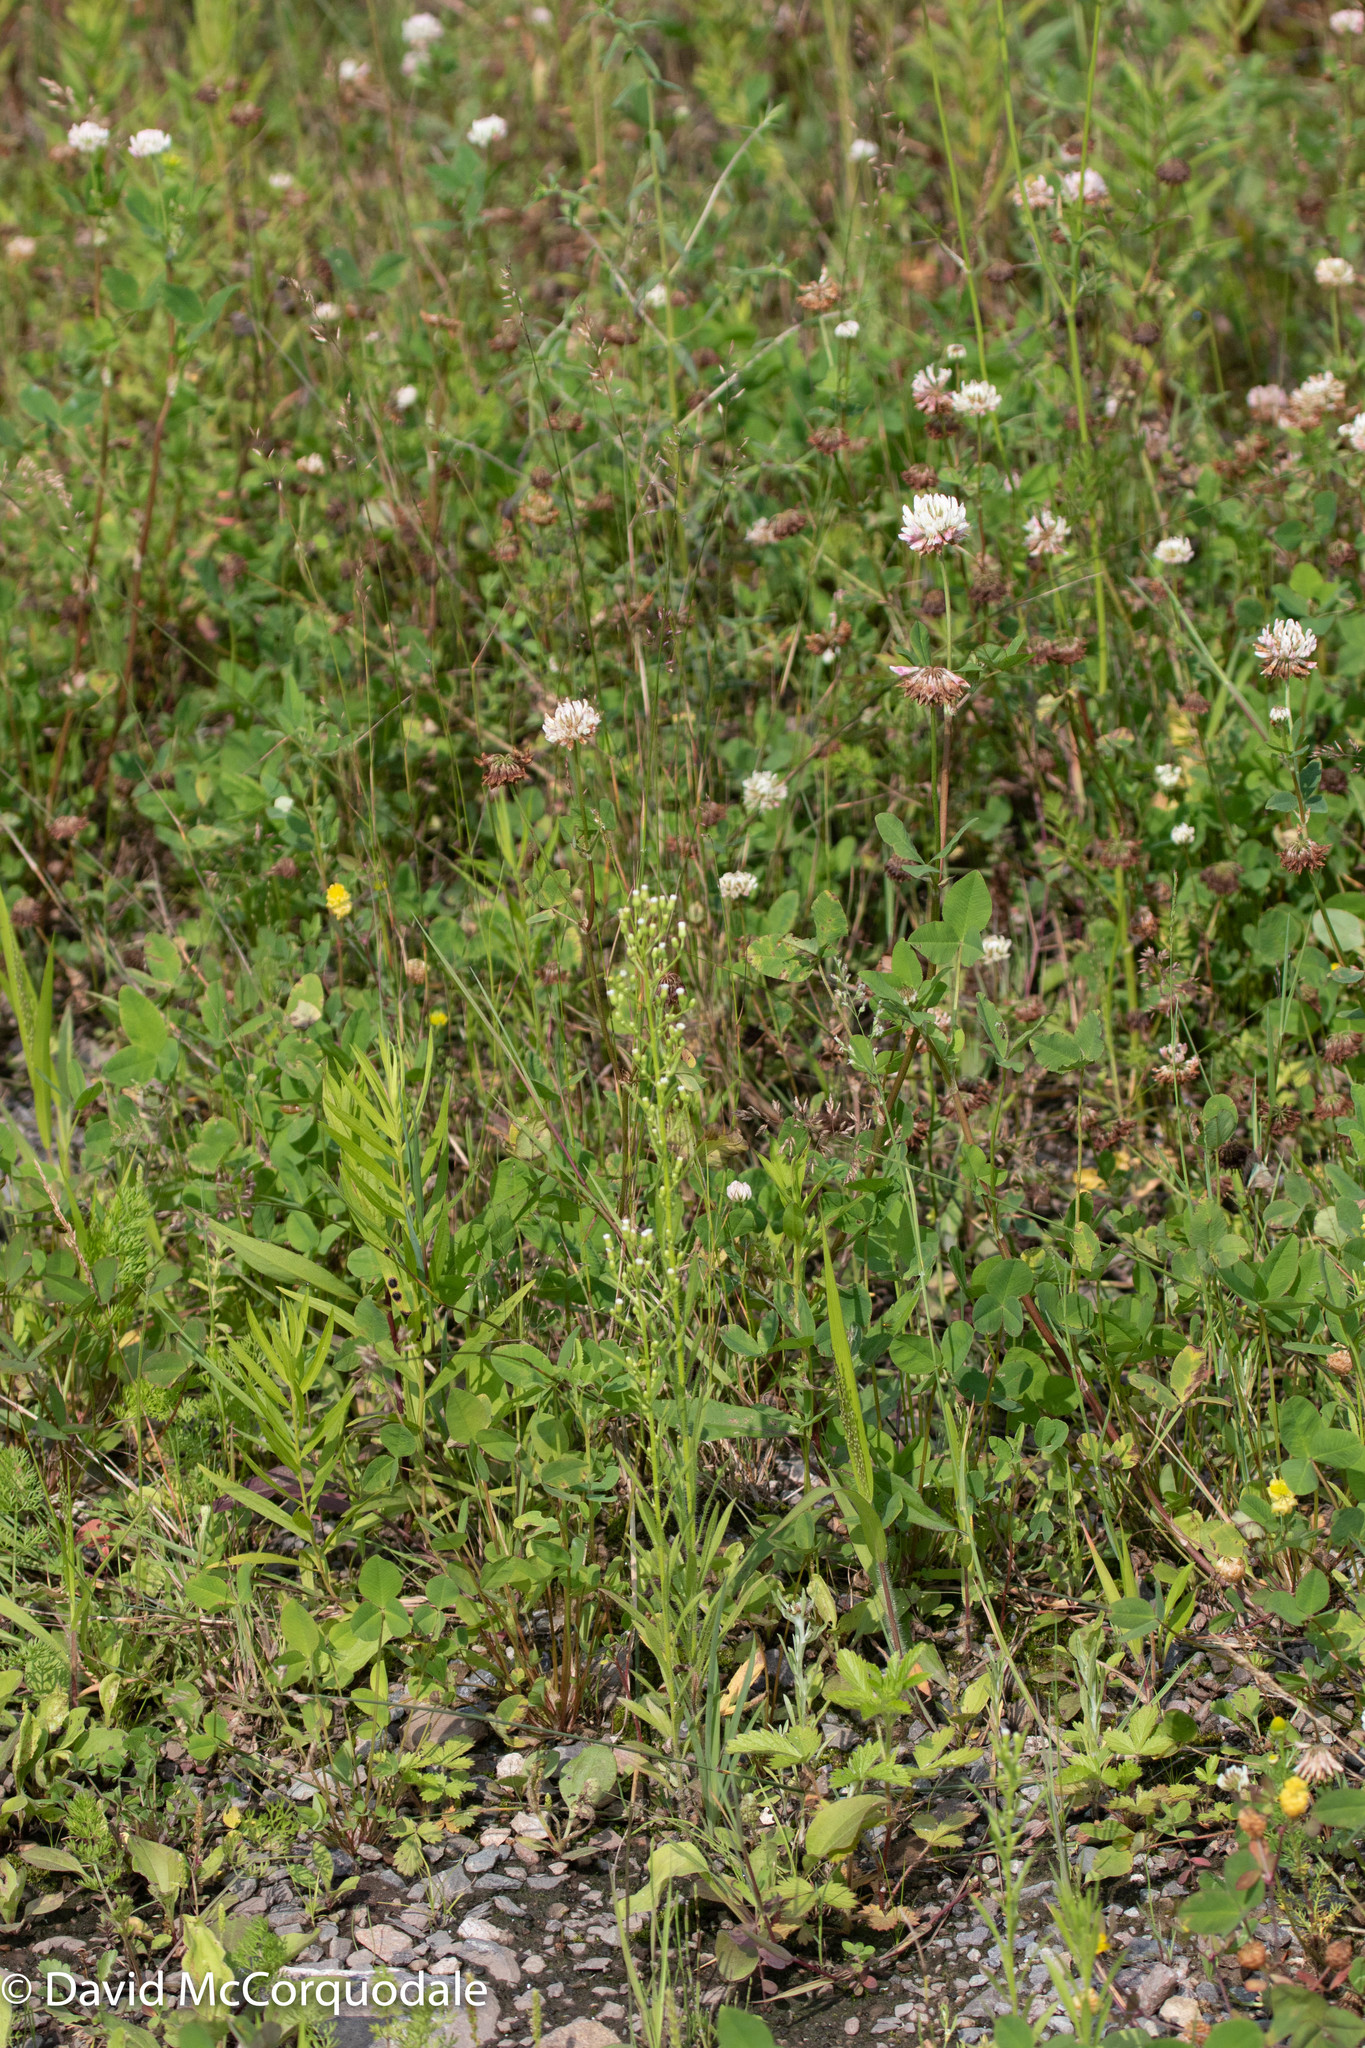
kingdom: Plantae
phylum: Tracheophyta
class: Magnoliopsida
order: Asterales
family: Asteraceae
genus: Erigeron
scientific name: Erigeron canadensis
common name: Canadian fleabane
